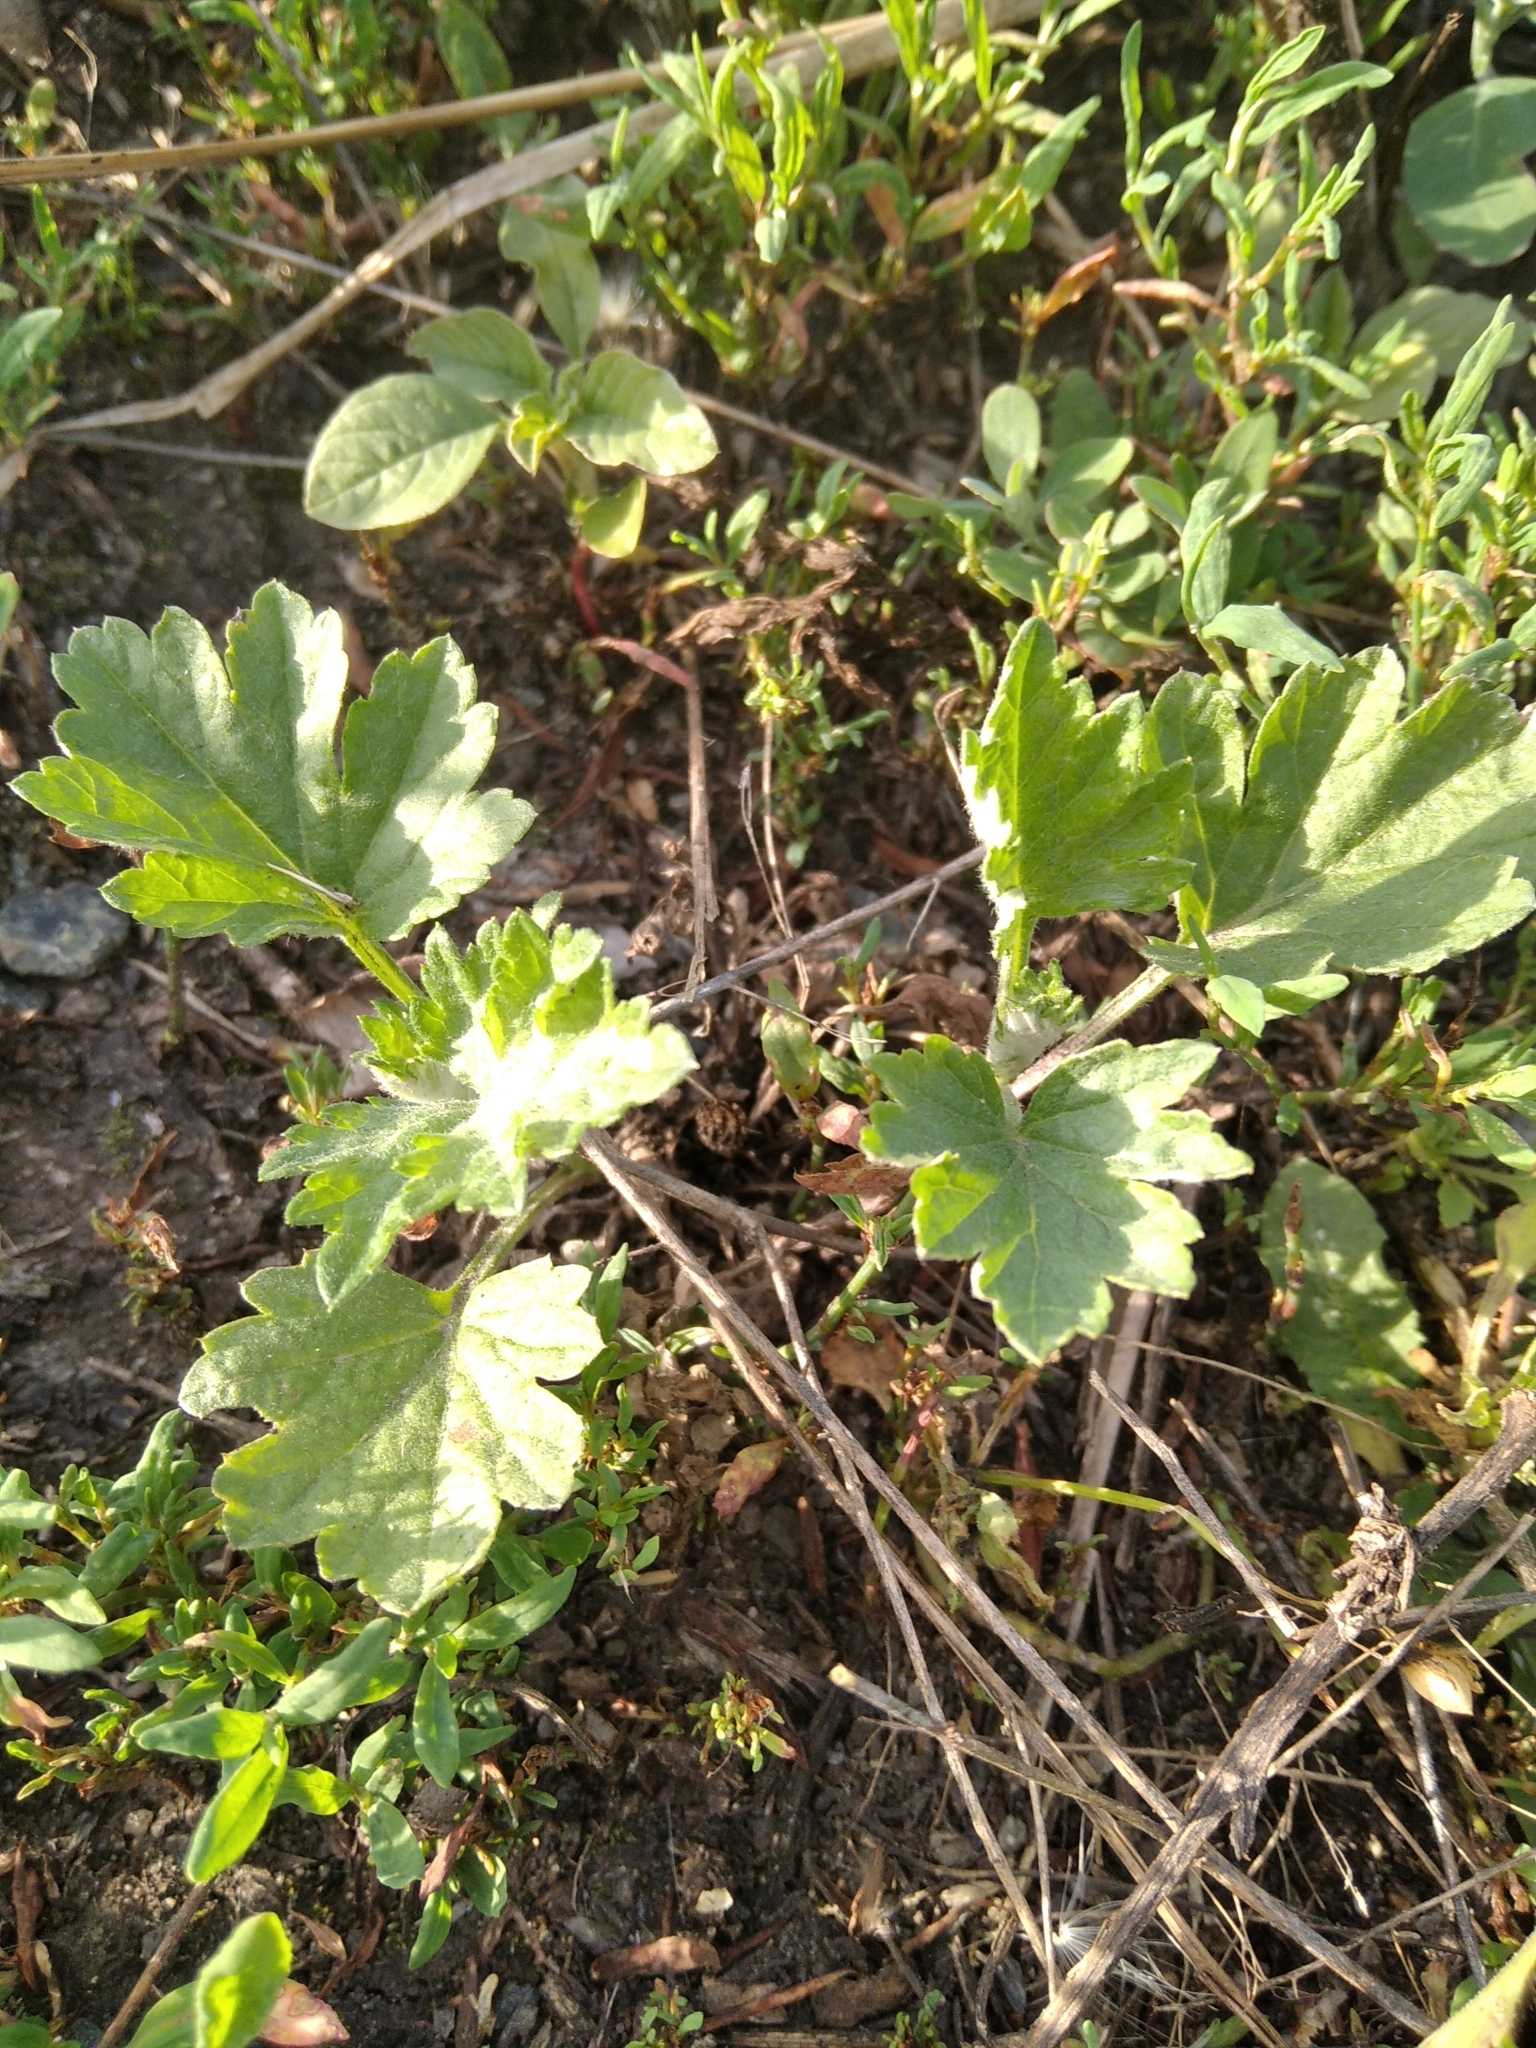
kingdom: Plantae
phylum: Tracheophyta
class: Magnoliopsida
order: Asterales
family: Asteraceae
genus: Artemisia
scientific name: Artemisia vulgaris
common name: Mugwort
